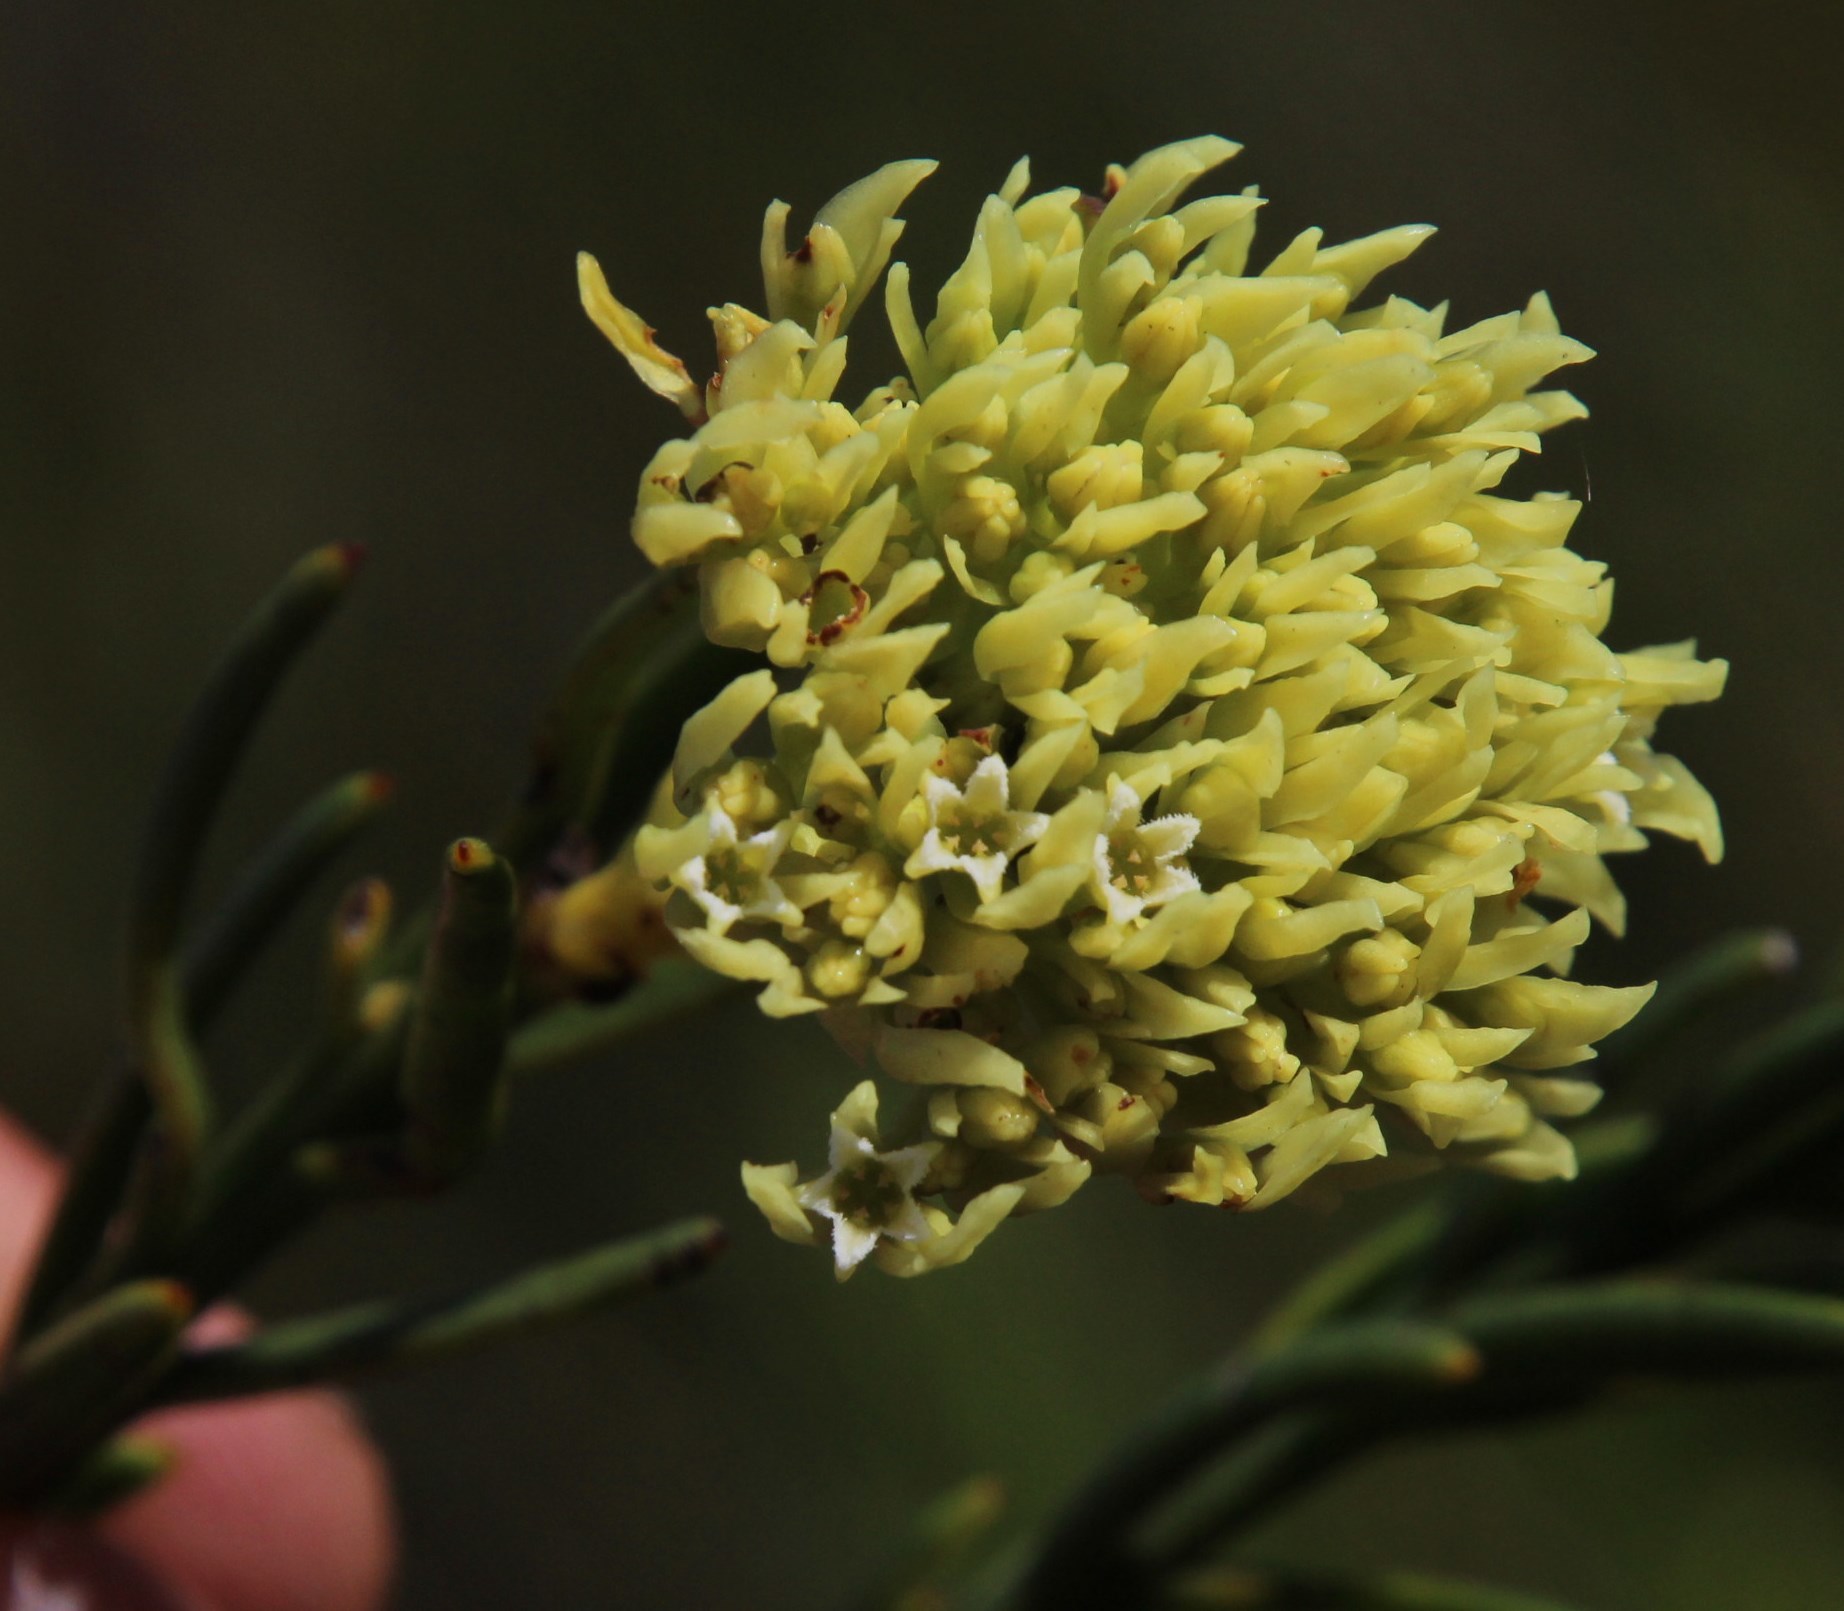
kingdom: Plantae
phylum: Tracheophyta
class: Magnoliopsida
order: Santalales
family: Thesiaceae
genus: Thesium
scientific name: Thesium umbelliferum
